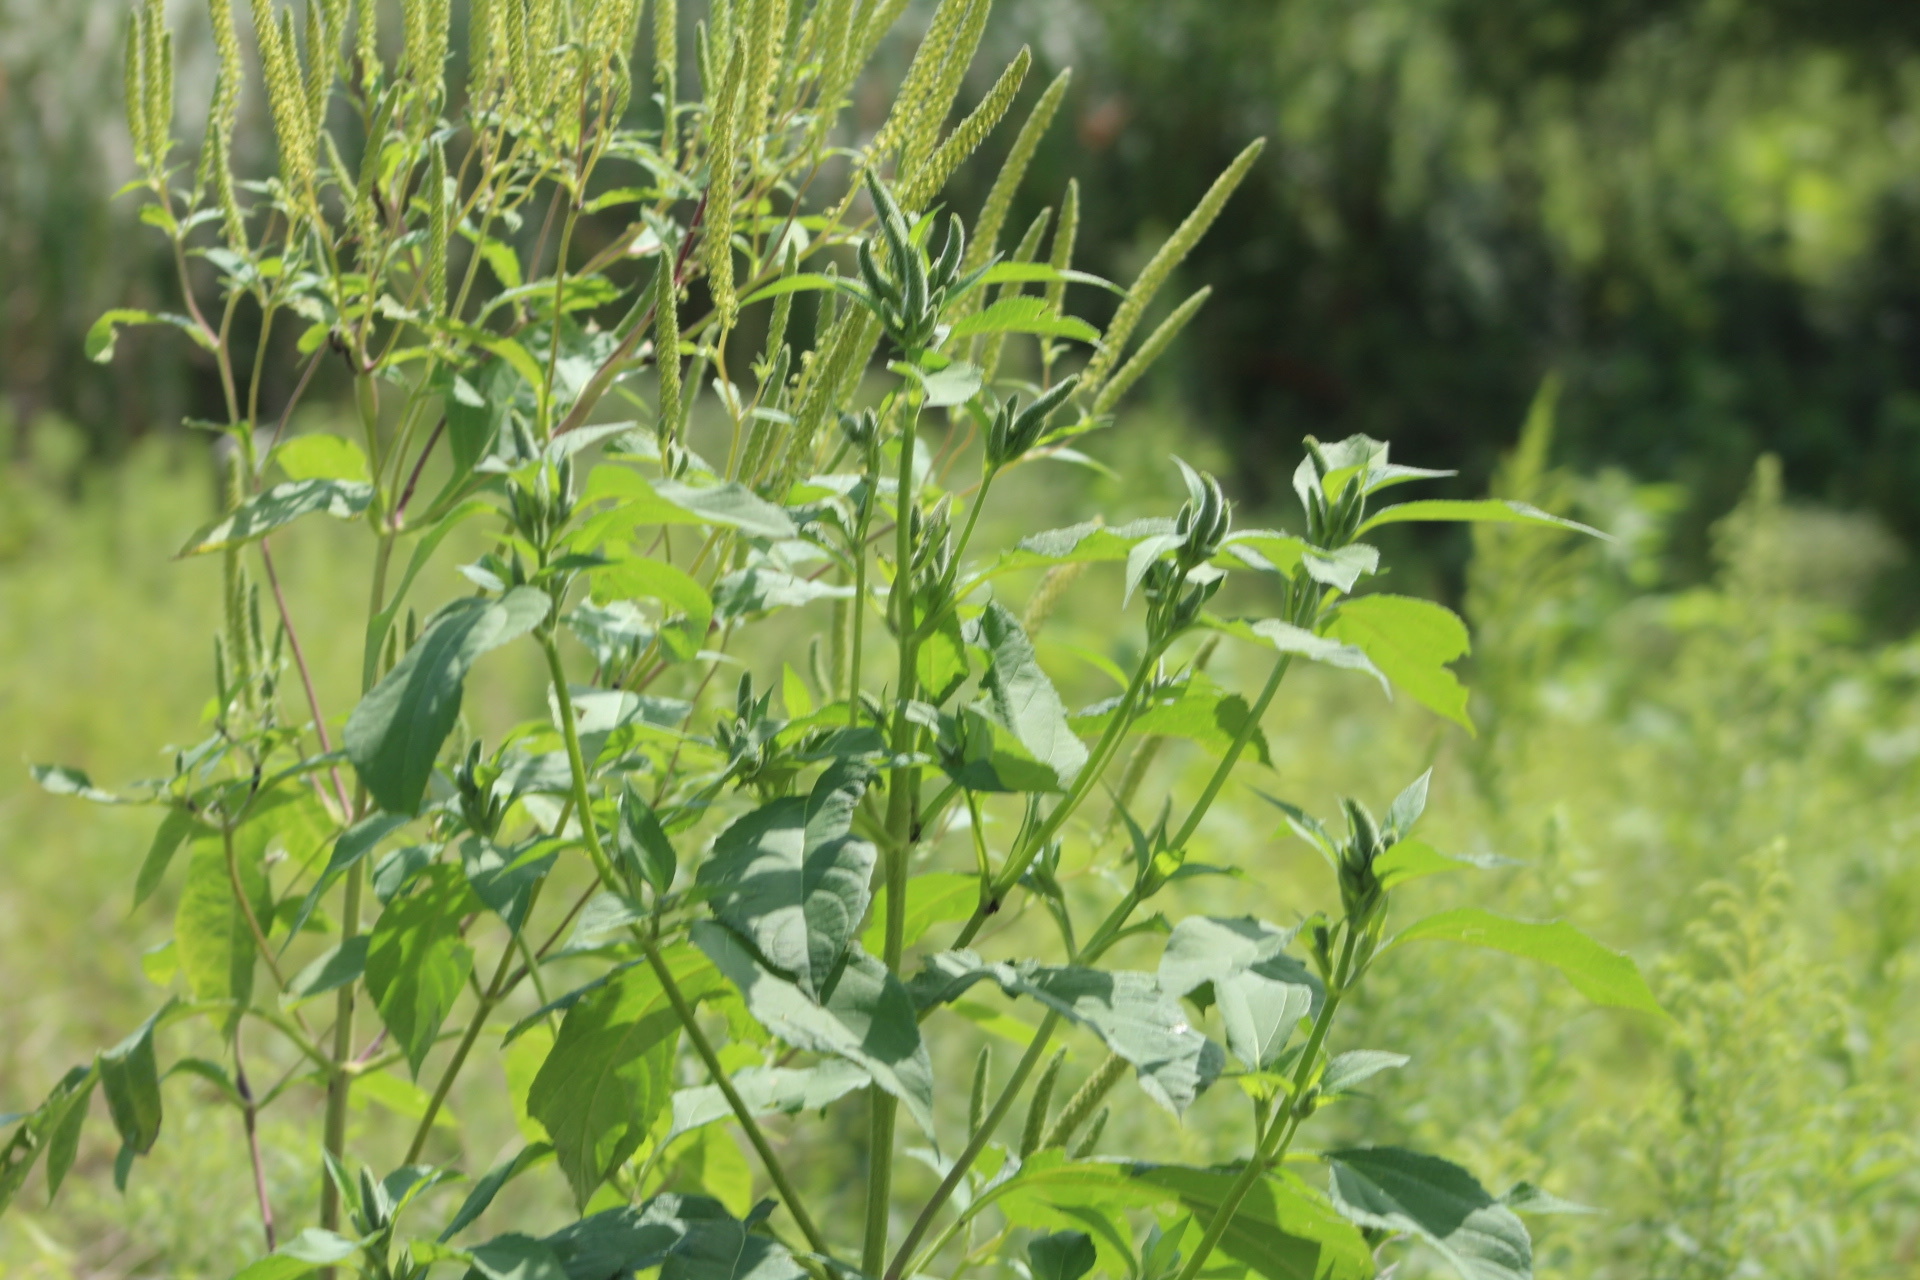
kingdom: Plantae
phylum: Tracheophyta
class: Magnoliopsida
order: Asterales
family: Asteraceae
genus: Ambrosia
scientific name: Ambrosia trifida
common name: Giant ragweed
